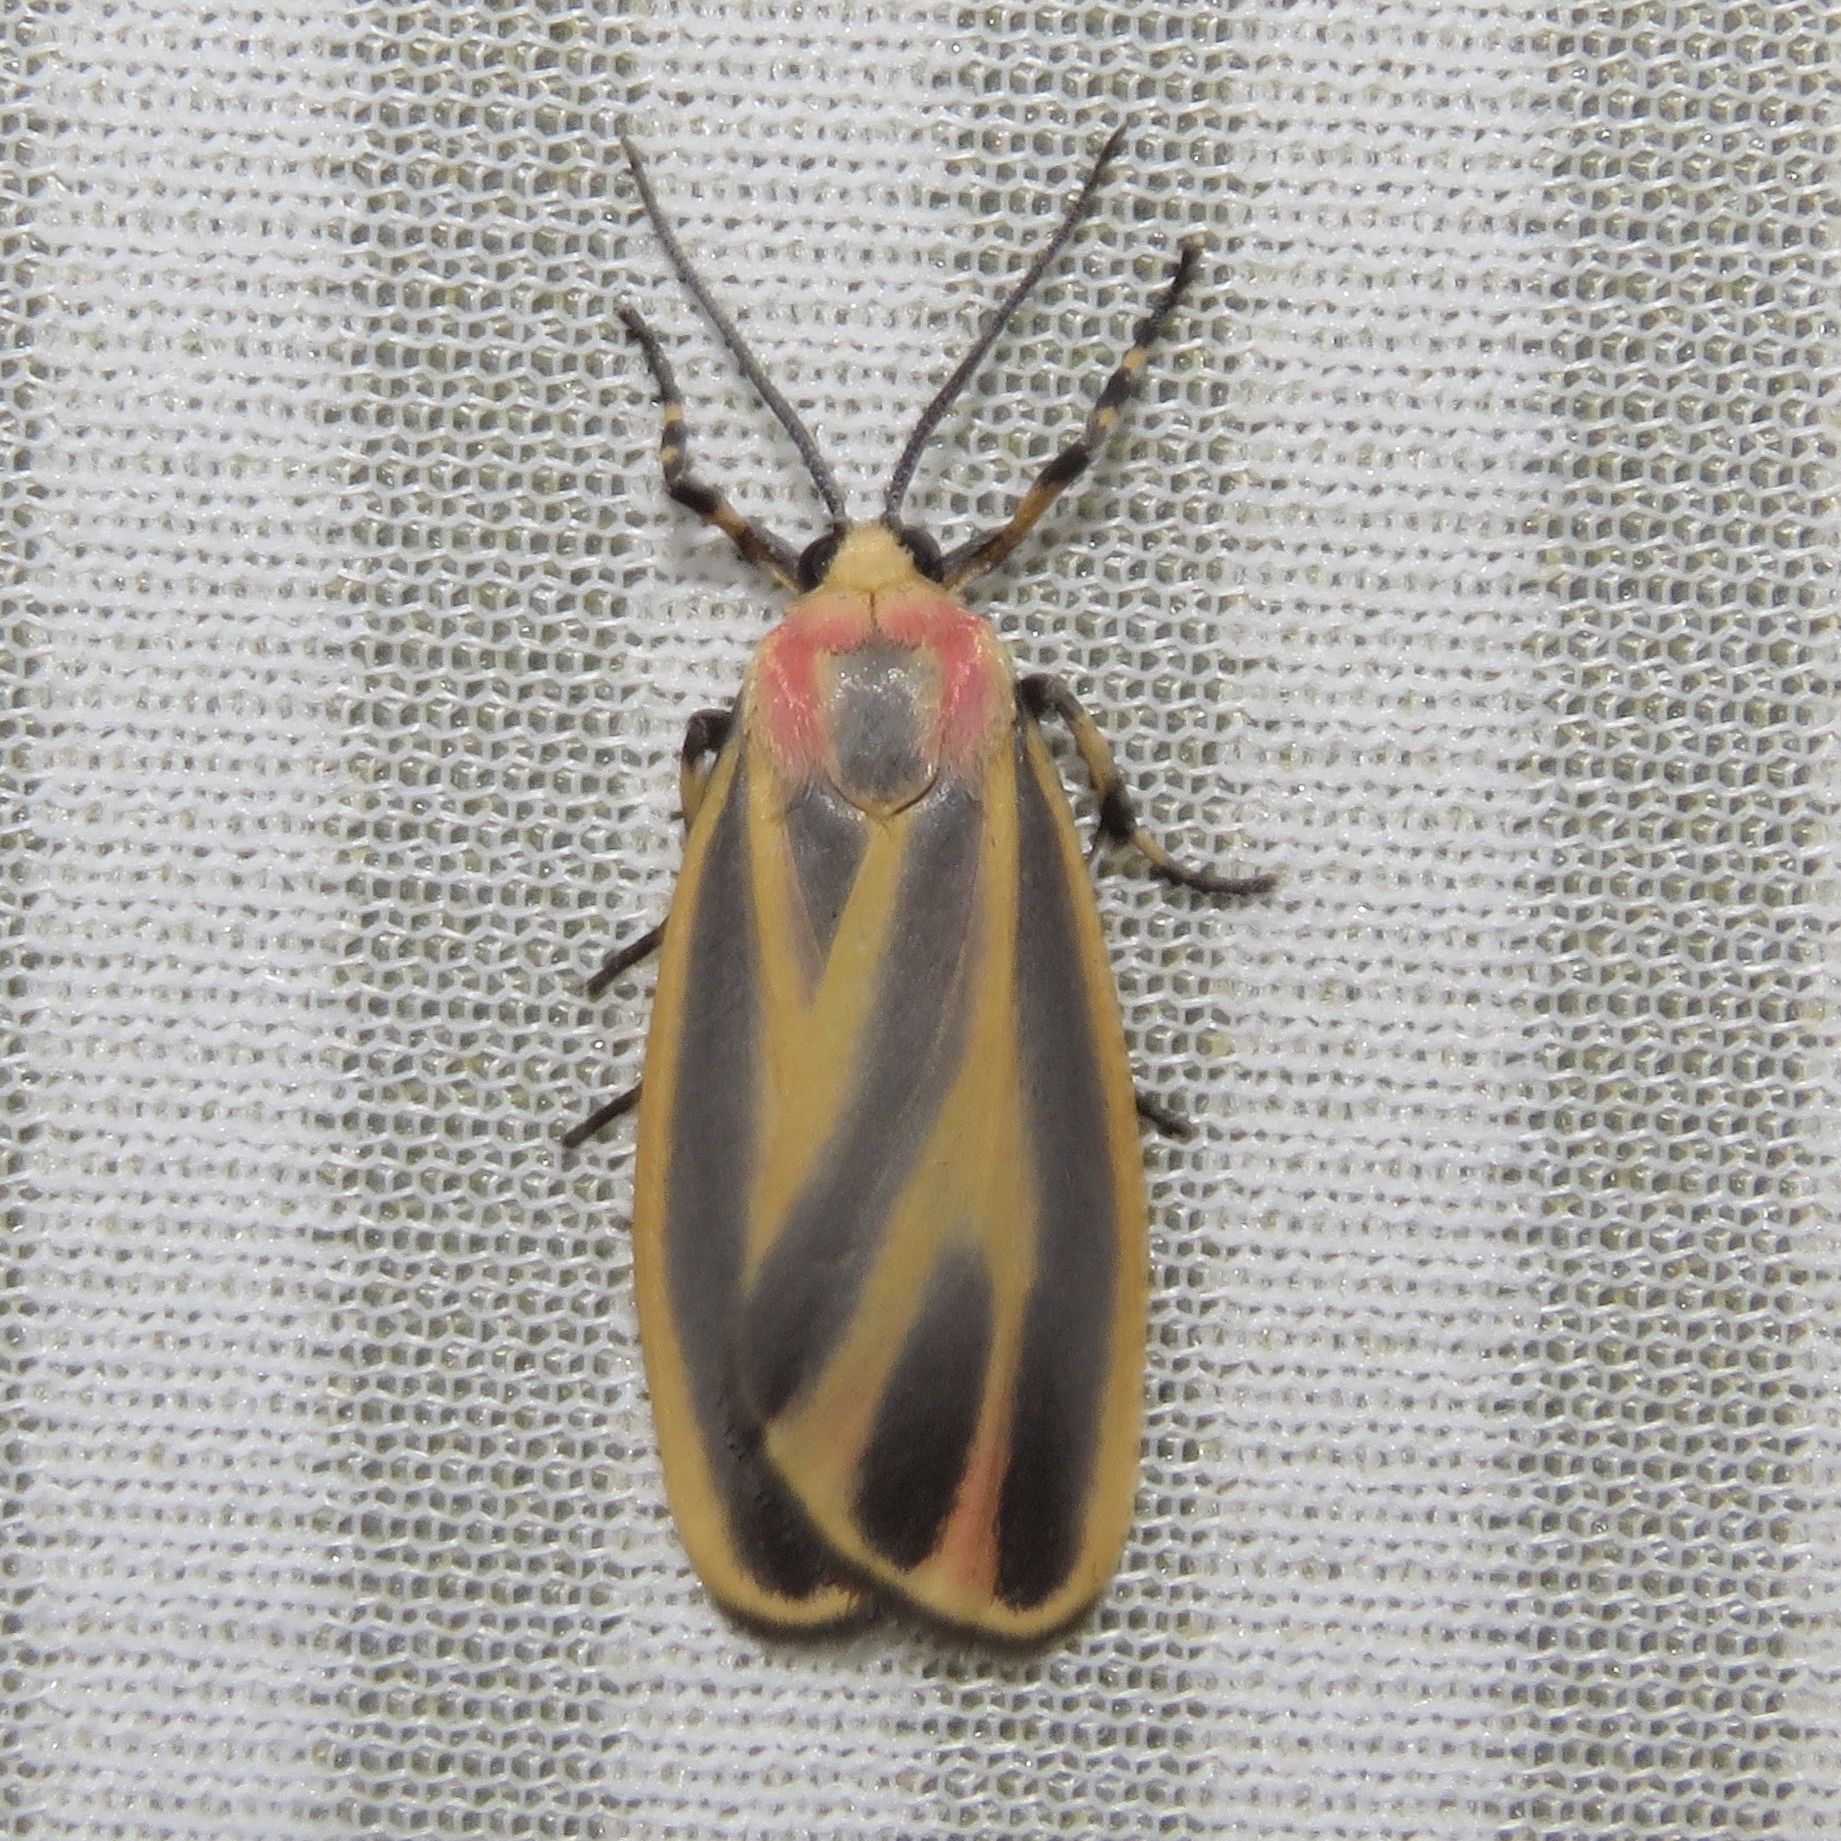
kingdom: Animalia
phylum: Arthropoda
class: Insecta
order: Lepidoptera
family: Erebidae
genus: Hypoprepia
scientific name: Hypoprepia fucosa
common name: Painted lichen moth
